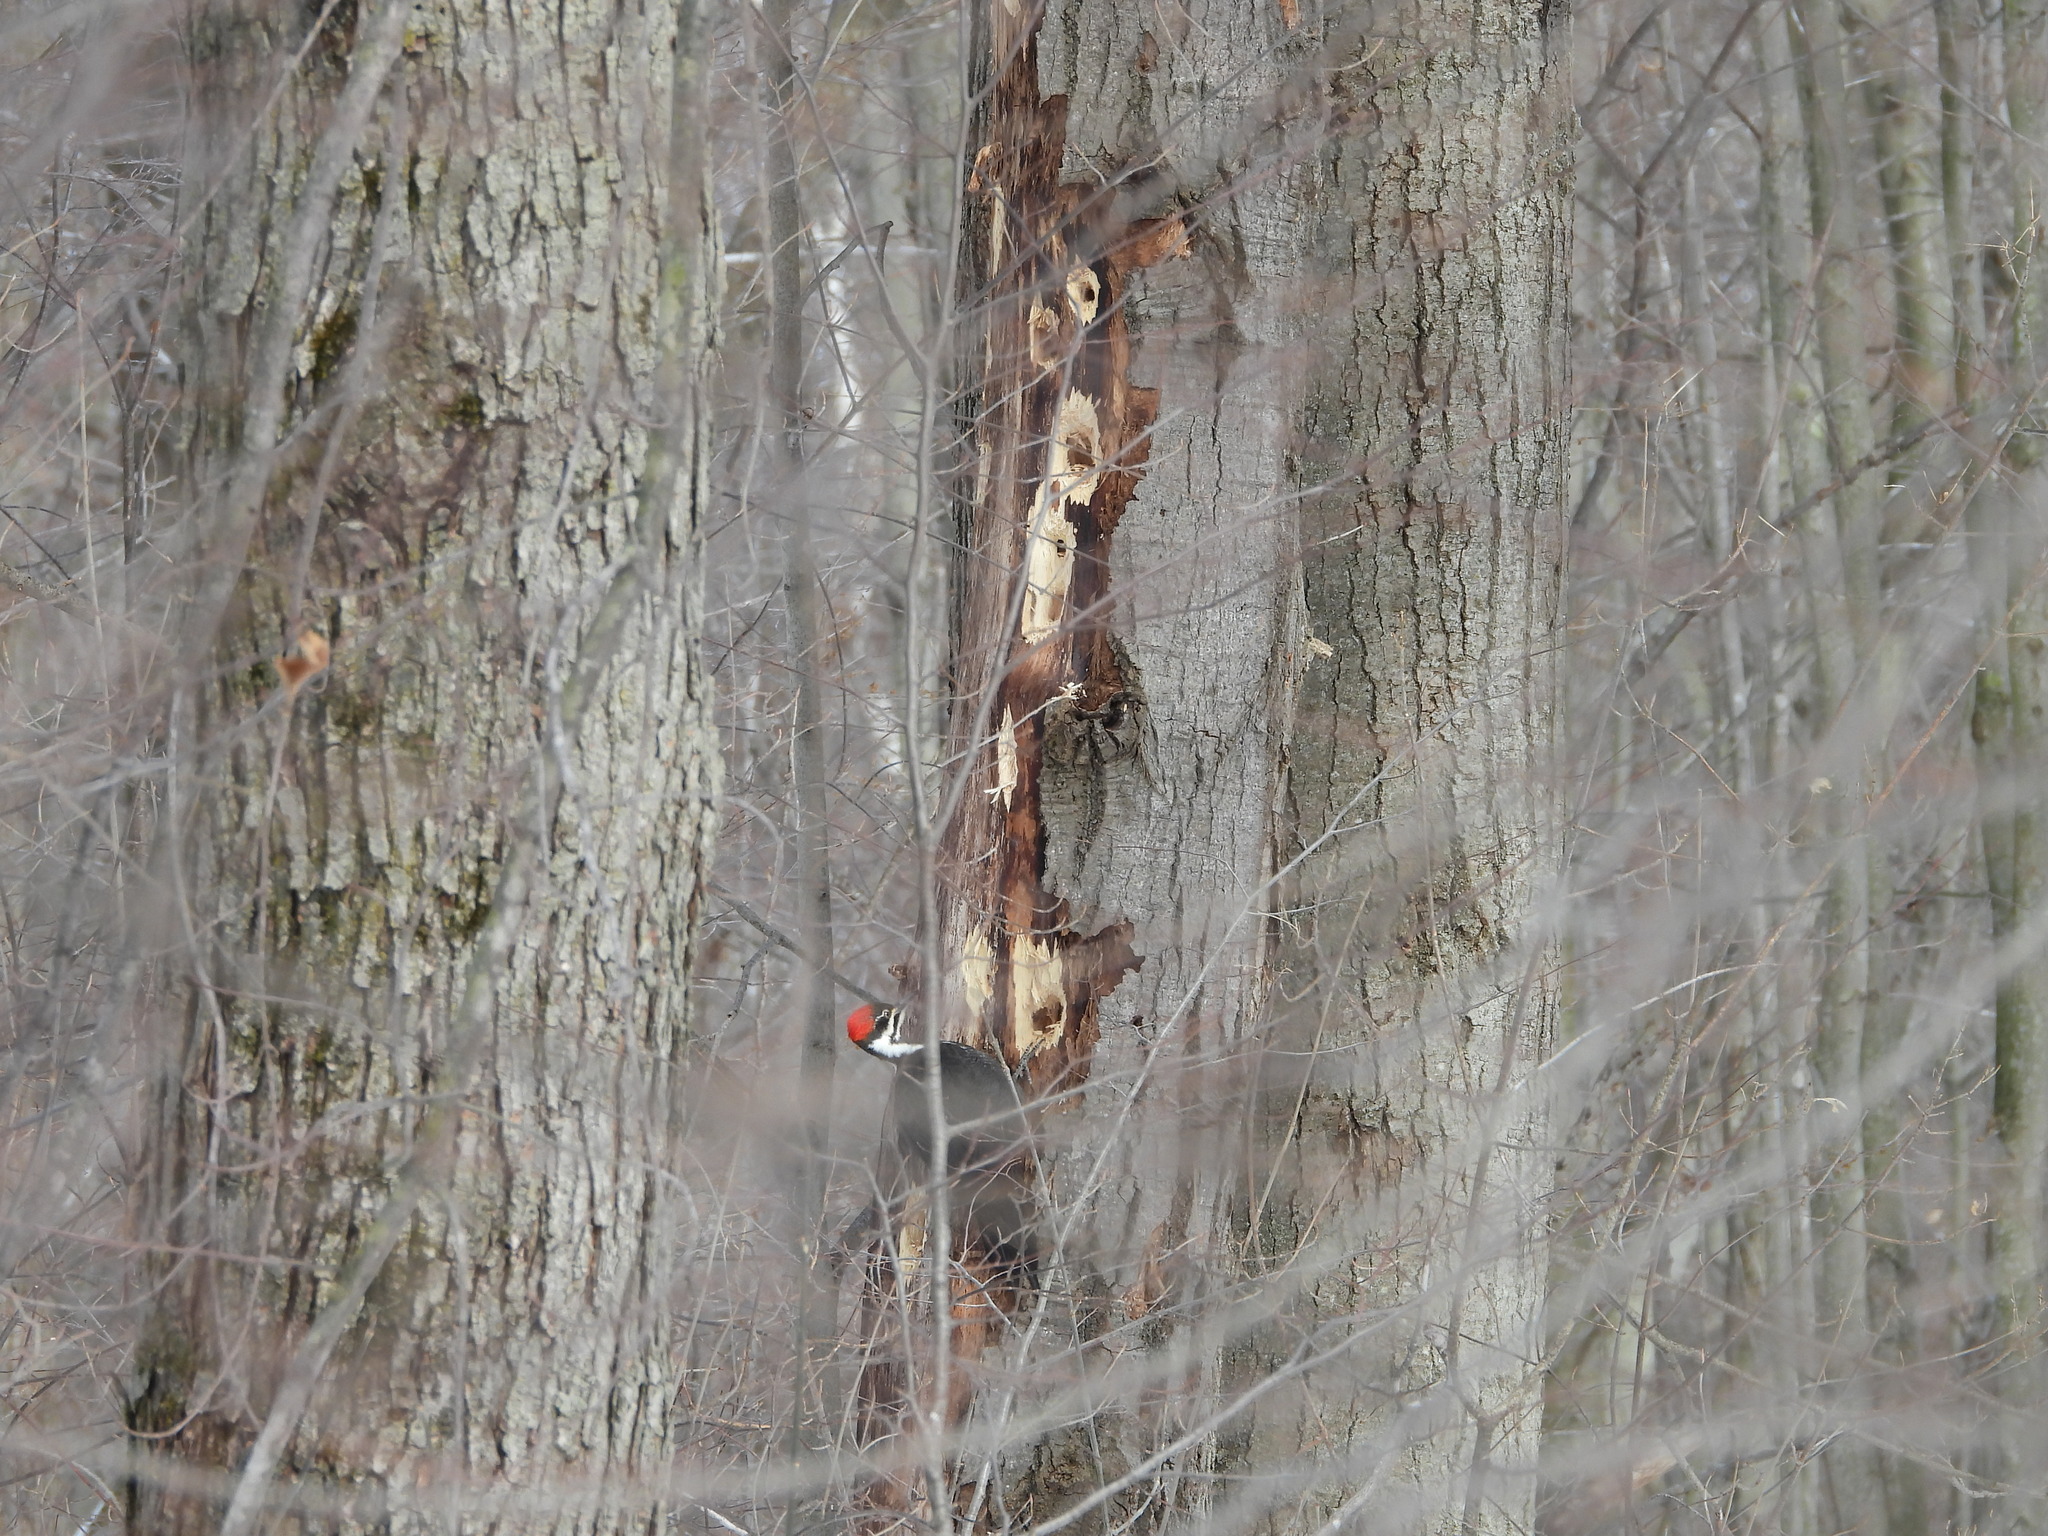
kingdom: Animalia
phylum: Chordata
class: Aves
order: Piciformes
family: Picidae
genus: Dryocopus
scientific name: Dryocopus pileatus
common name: Pileated woodpecker
